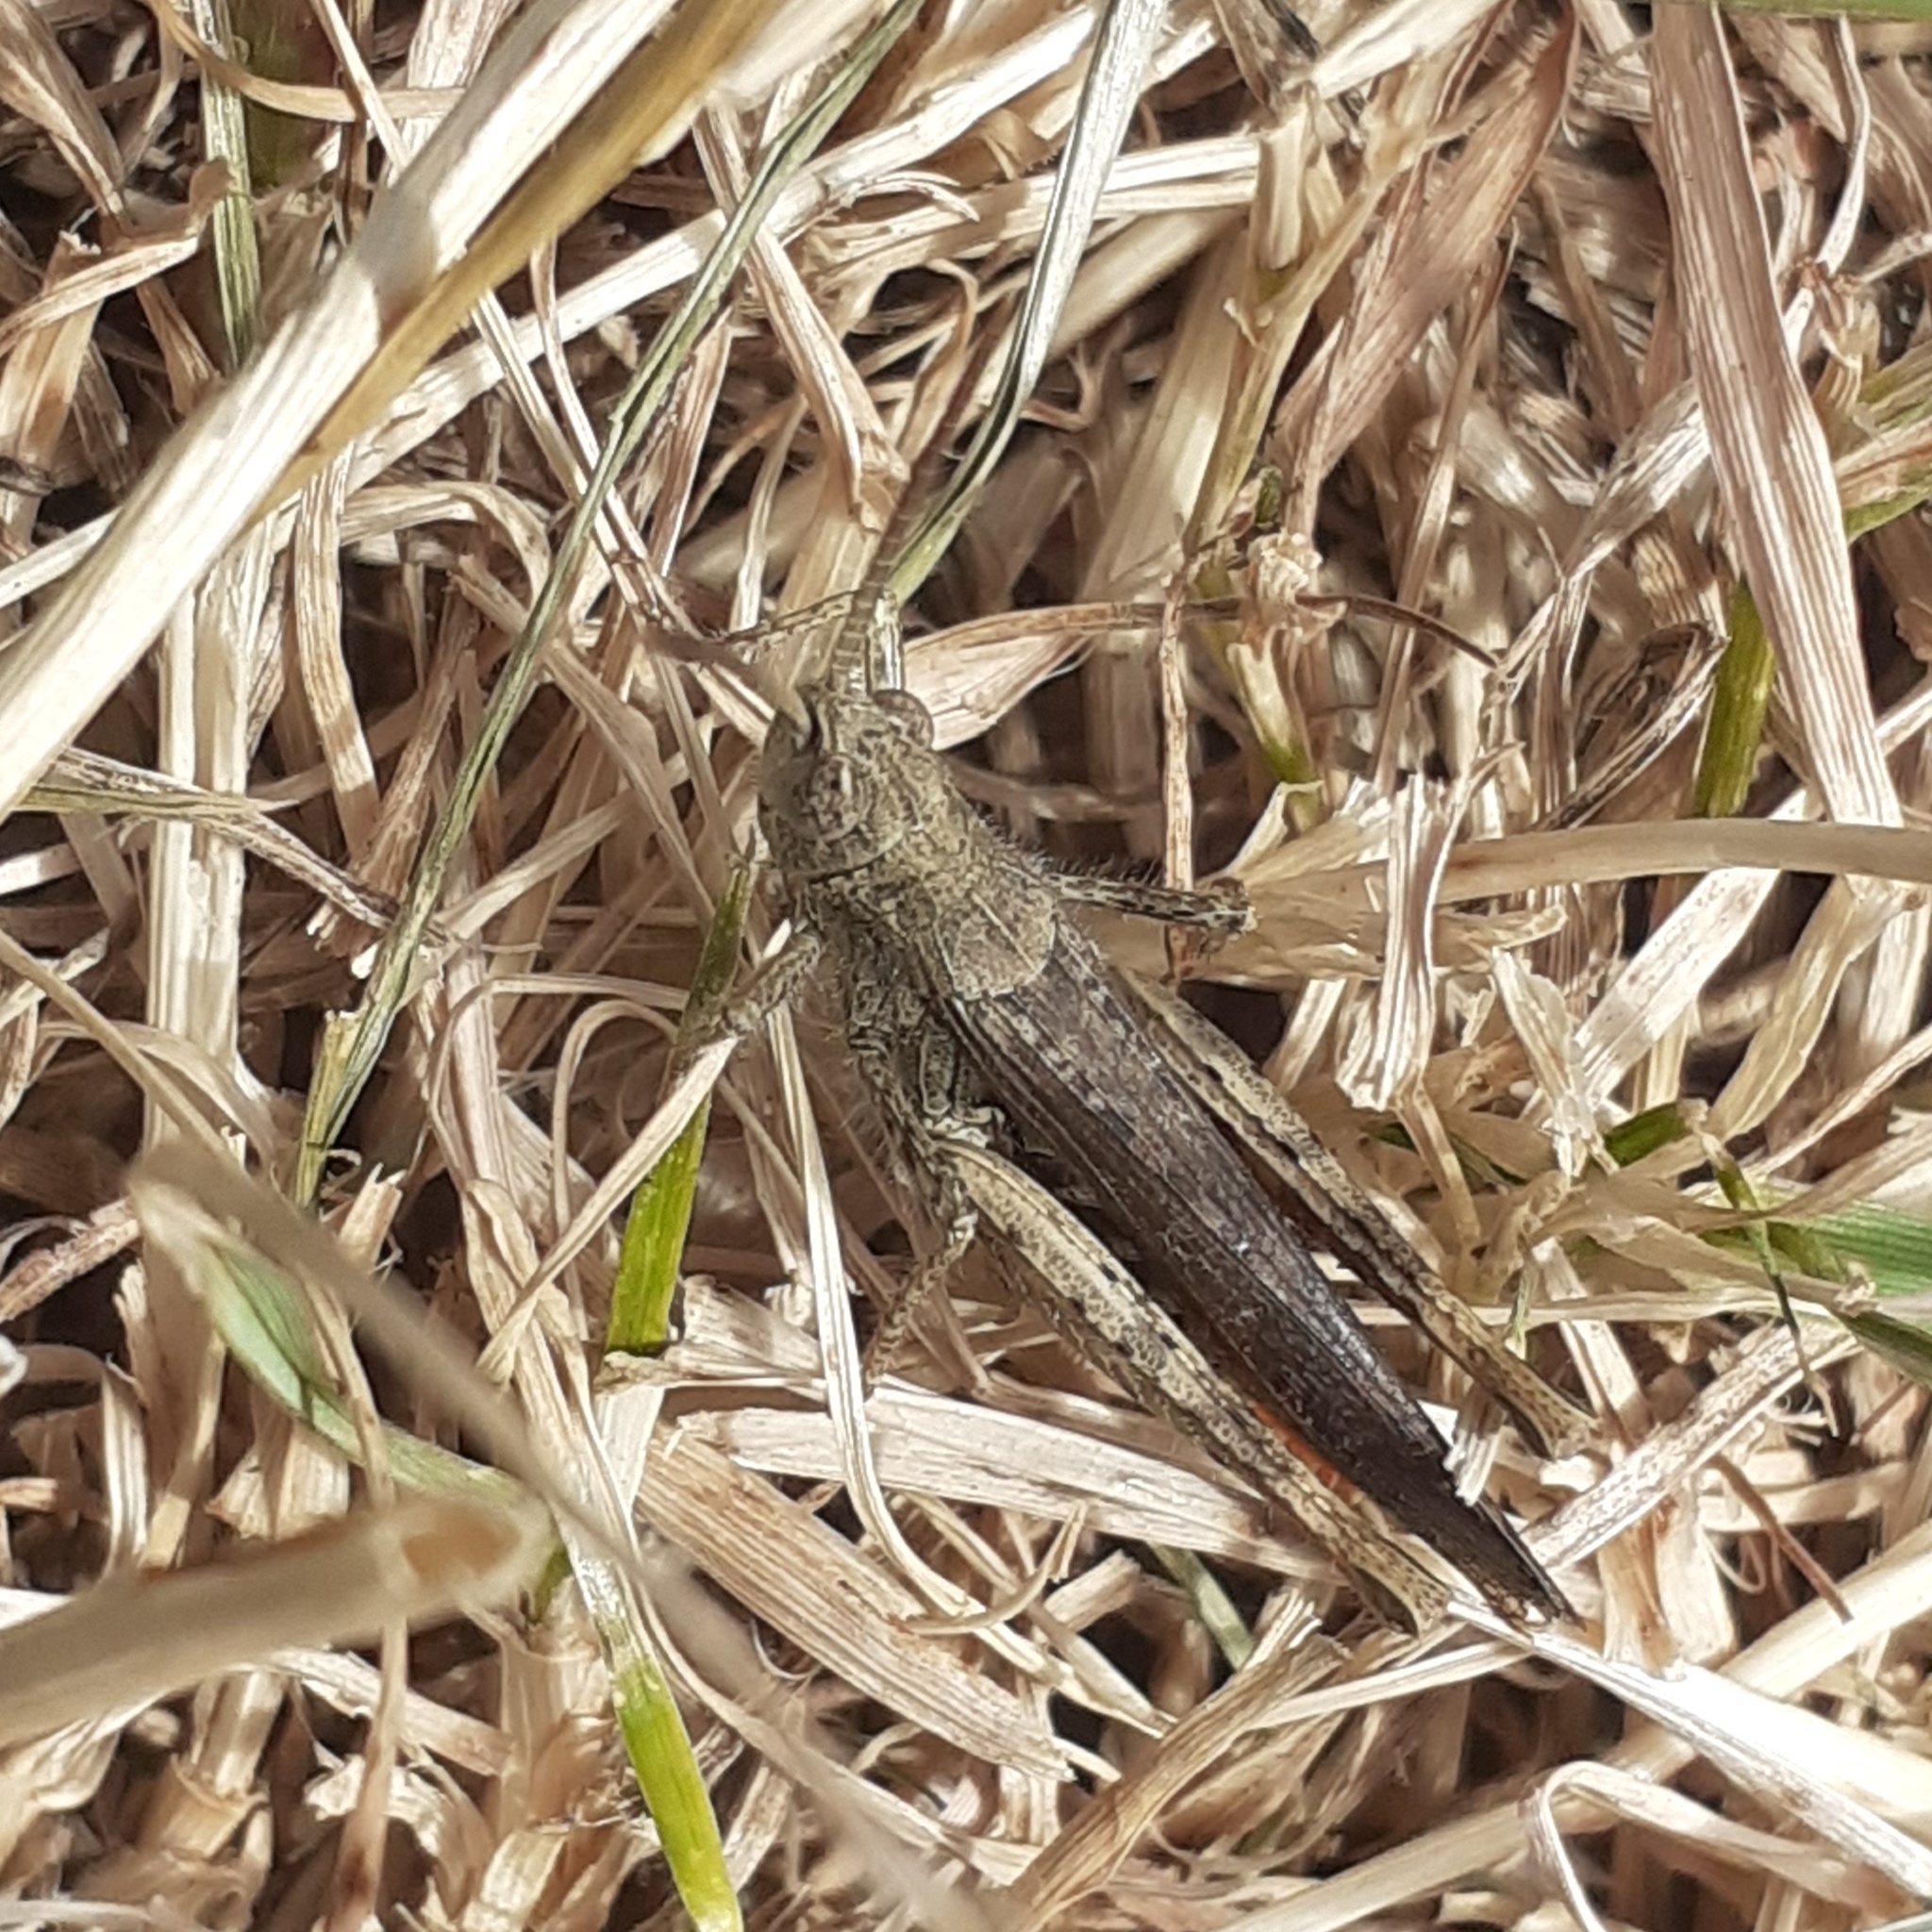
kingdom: Animalia
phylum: Arthropoda
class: Insecta
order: Orthoptera
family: Acrididae
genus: Chorthippus
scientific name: Chorthippus brunneus
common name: Field grasshopper
